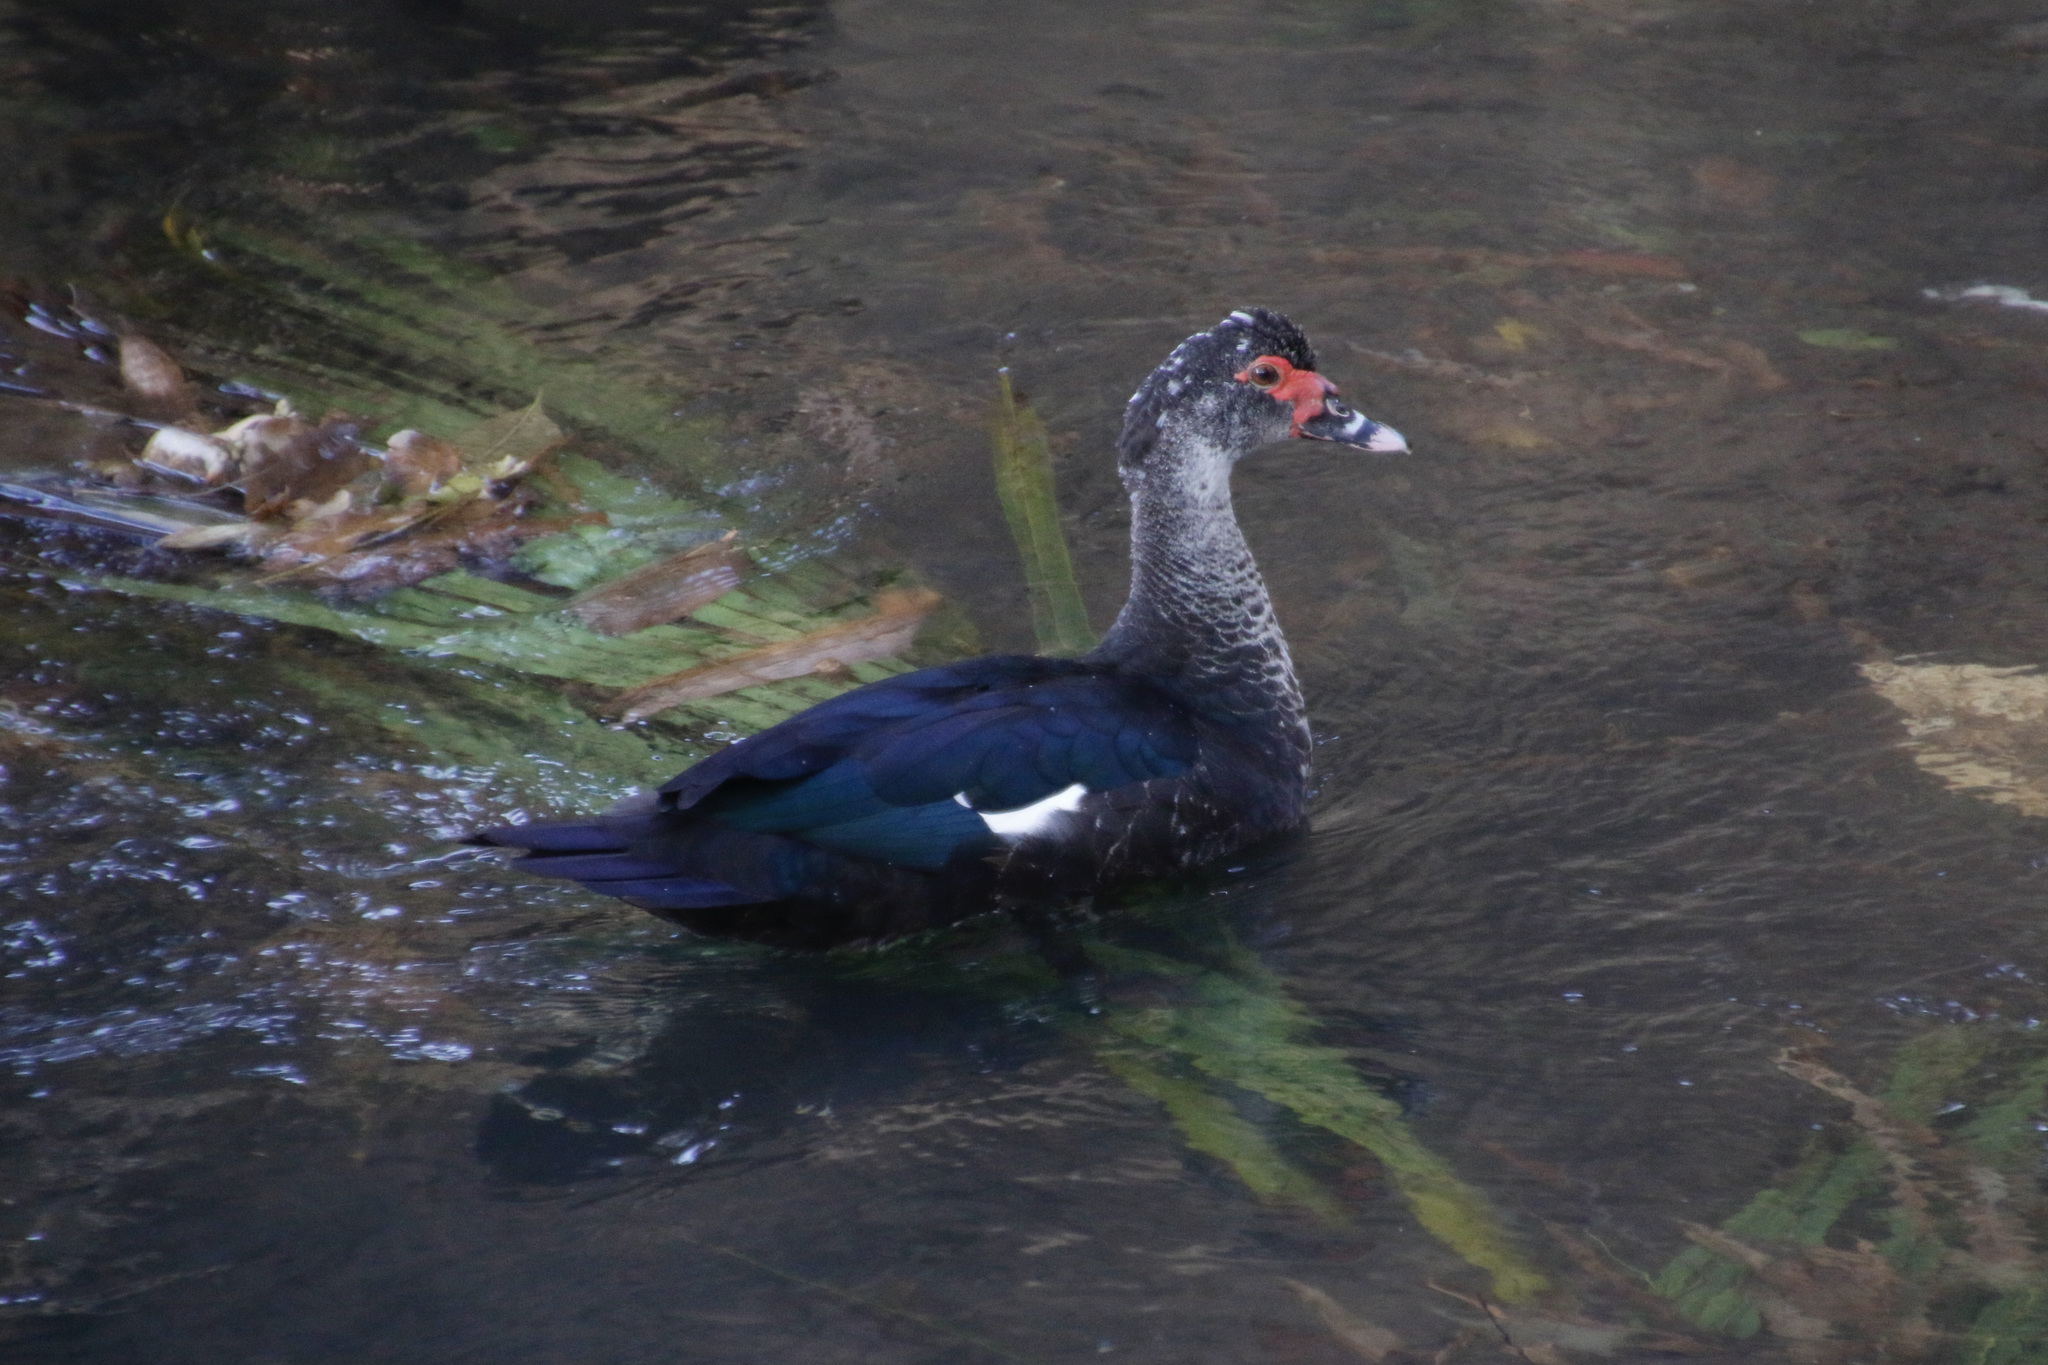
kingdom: Animalia
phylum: Chordata
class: Aves
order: Anseriformes
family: Anatidae
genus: Cairina
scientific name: Cairina moschata
